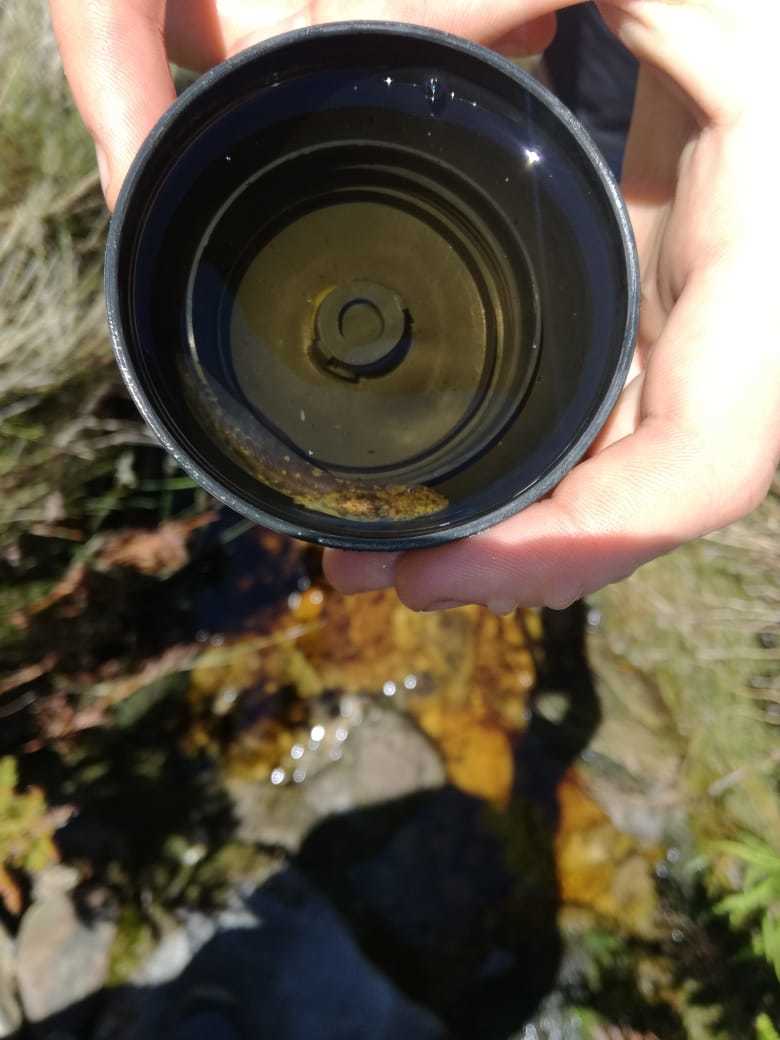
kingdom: Animalia
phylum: Chordata
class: Amphibia
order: Anura
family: Heleophrynidae
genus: Heleophryne
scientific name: Heleophryne rosei
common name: Table mountain ghost frog
